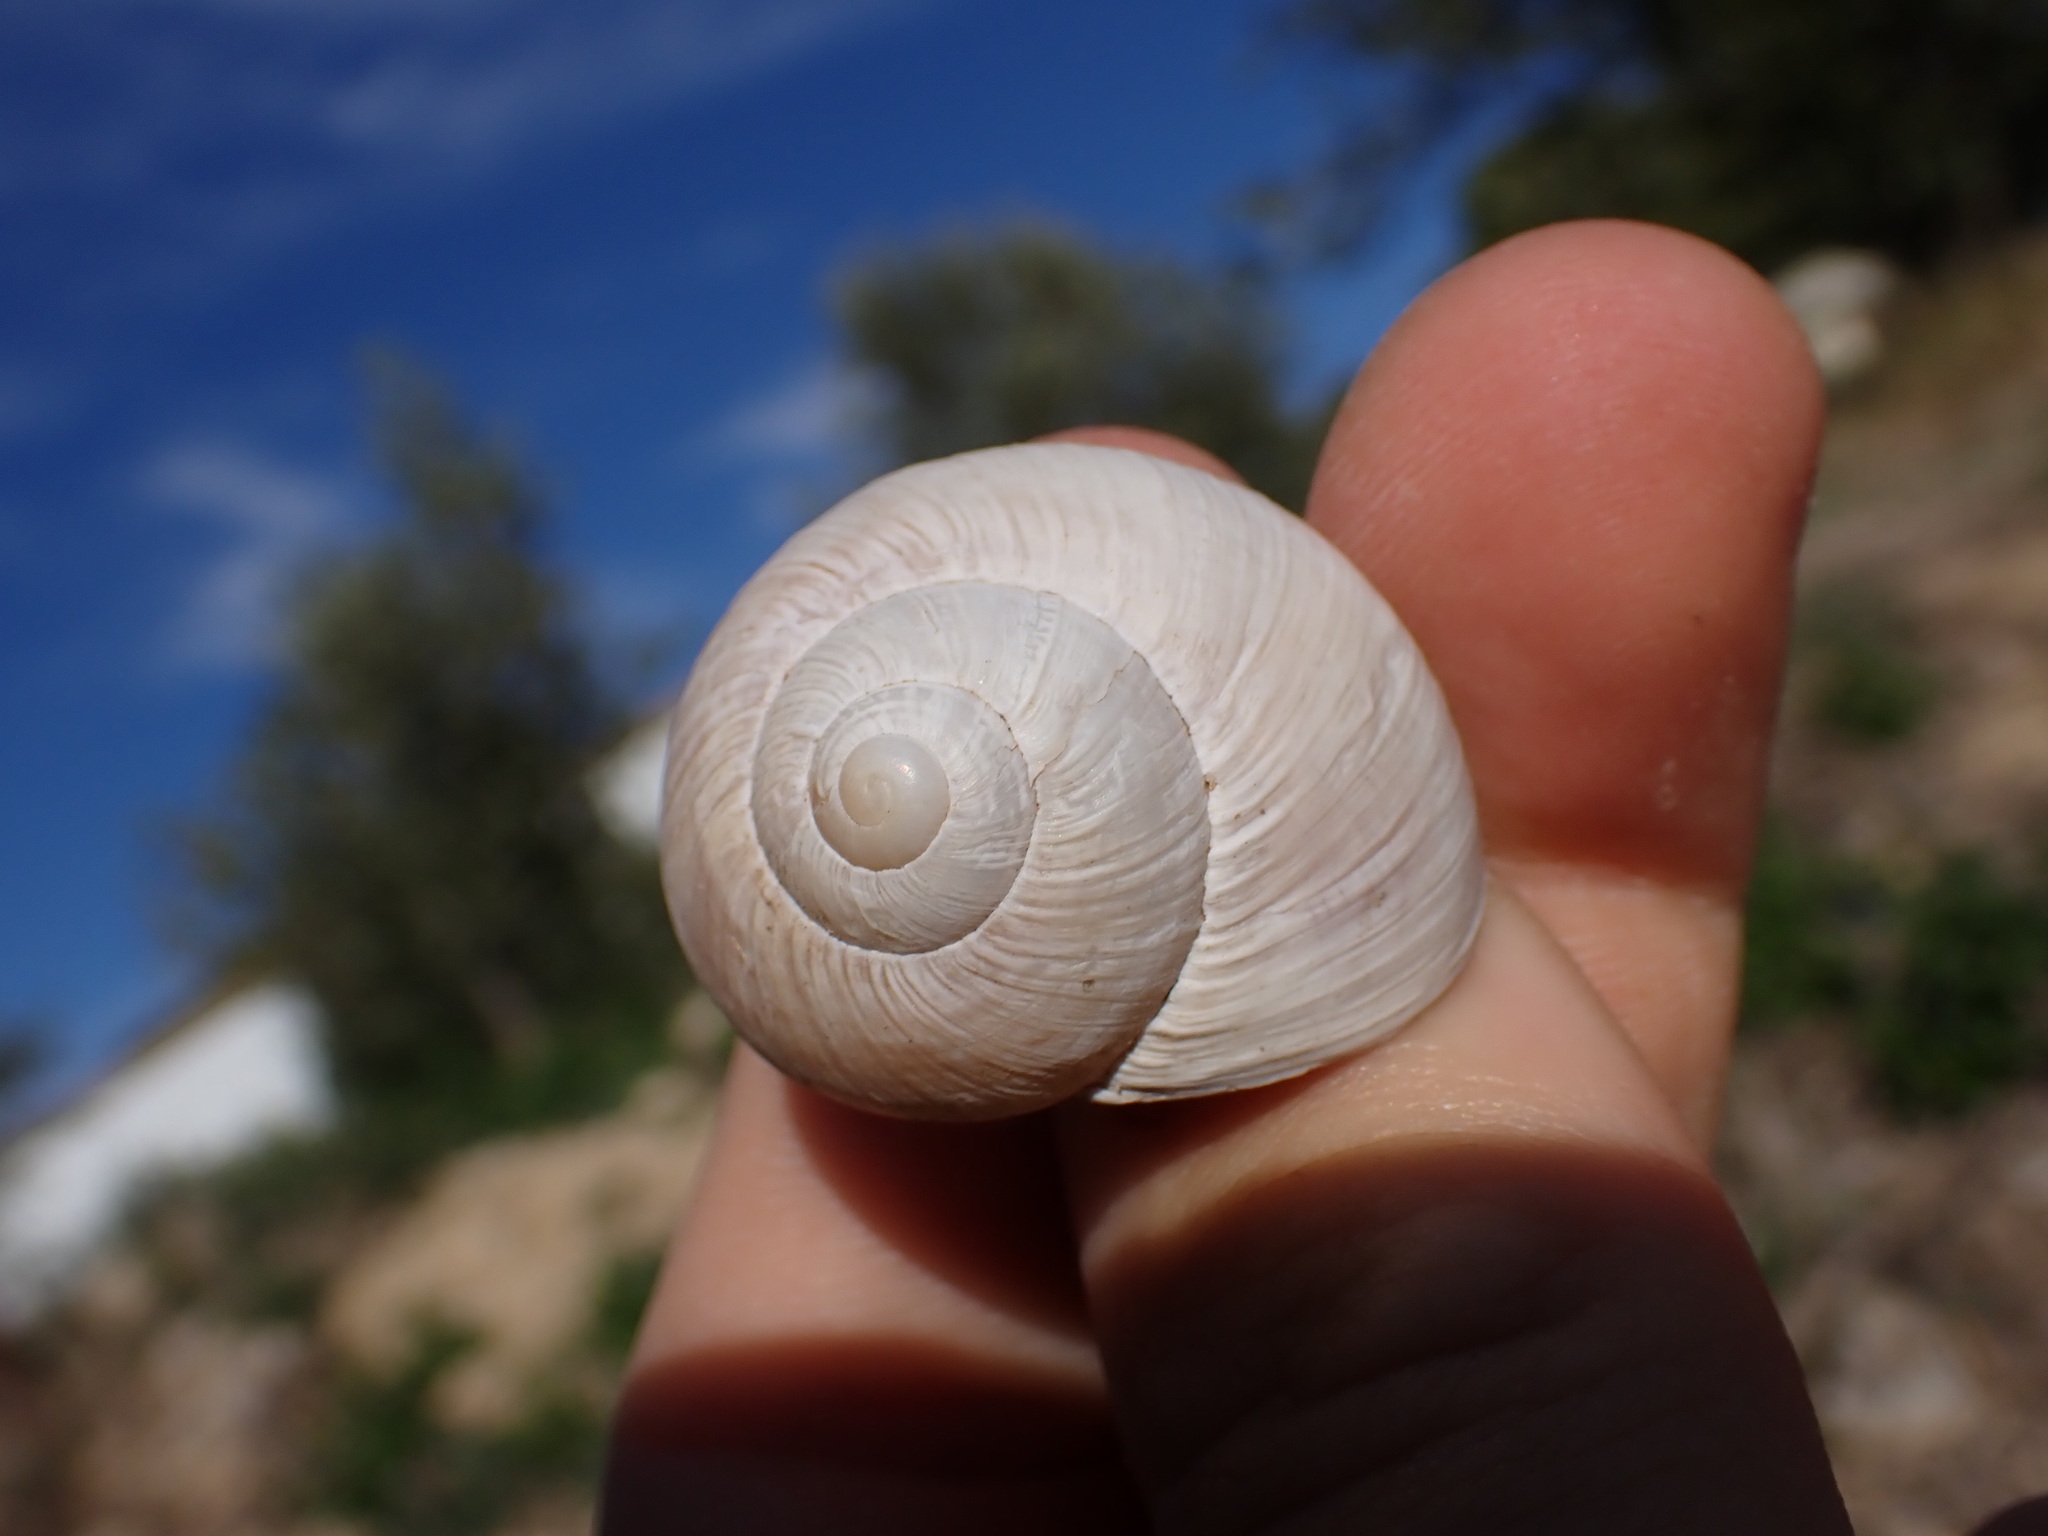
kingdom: Animalia
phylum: Mollusca
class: Gastropoda
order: Stylommatophora
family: Helicidae
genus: Helix
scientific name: Helix melanostoma
